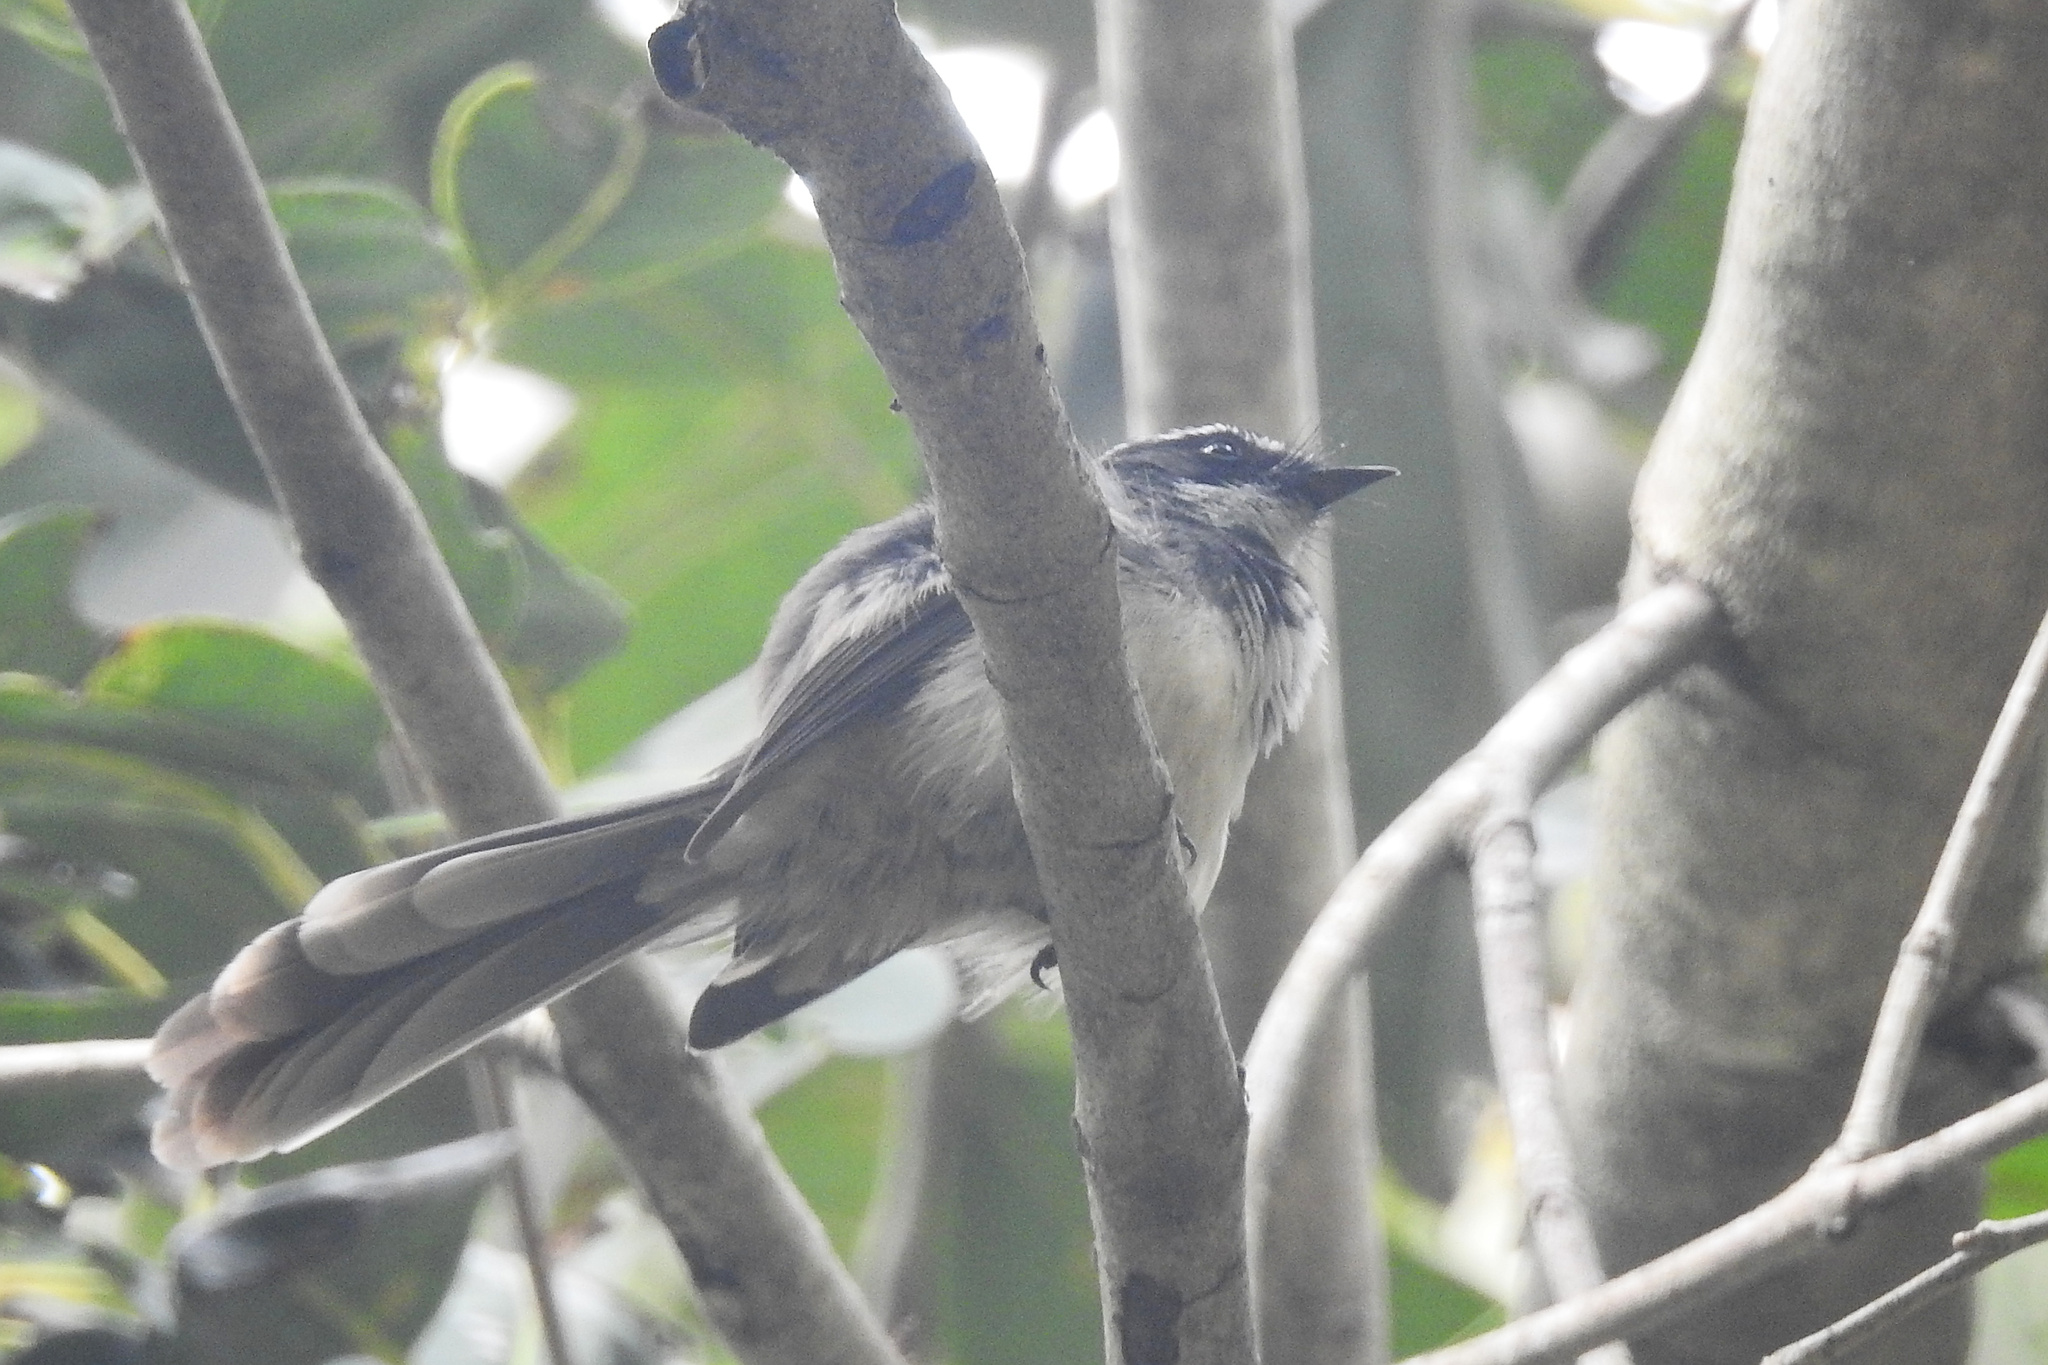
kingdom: Animalia
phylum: Chordata
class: Aves
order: Passeriformes
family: Rhipiduridae
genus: Rhipidura
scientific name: Rhipidura albogularis
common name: White-spotted fantail
